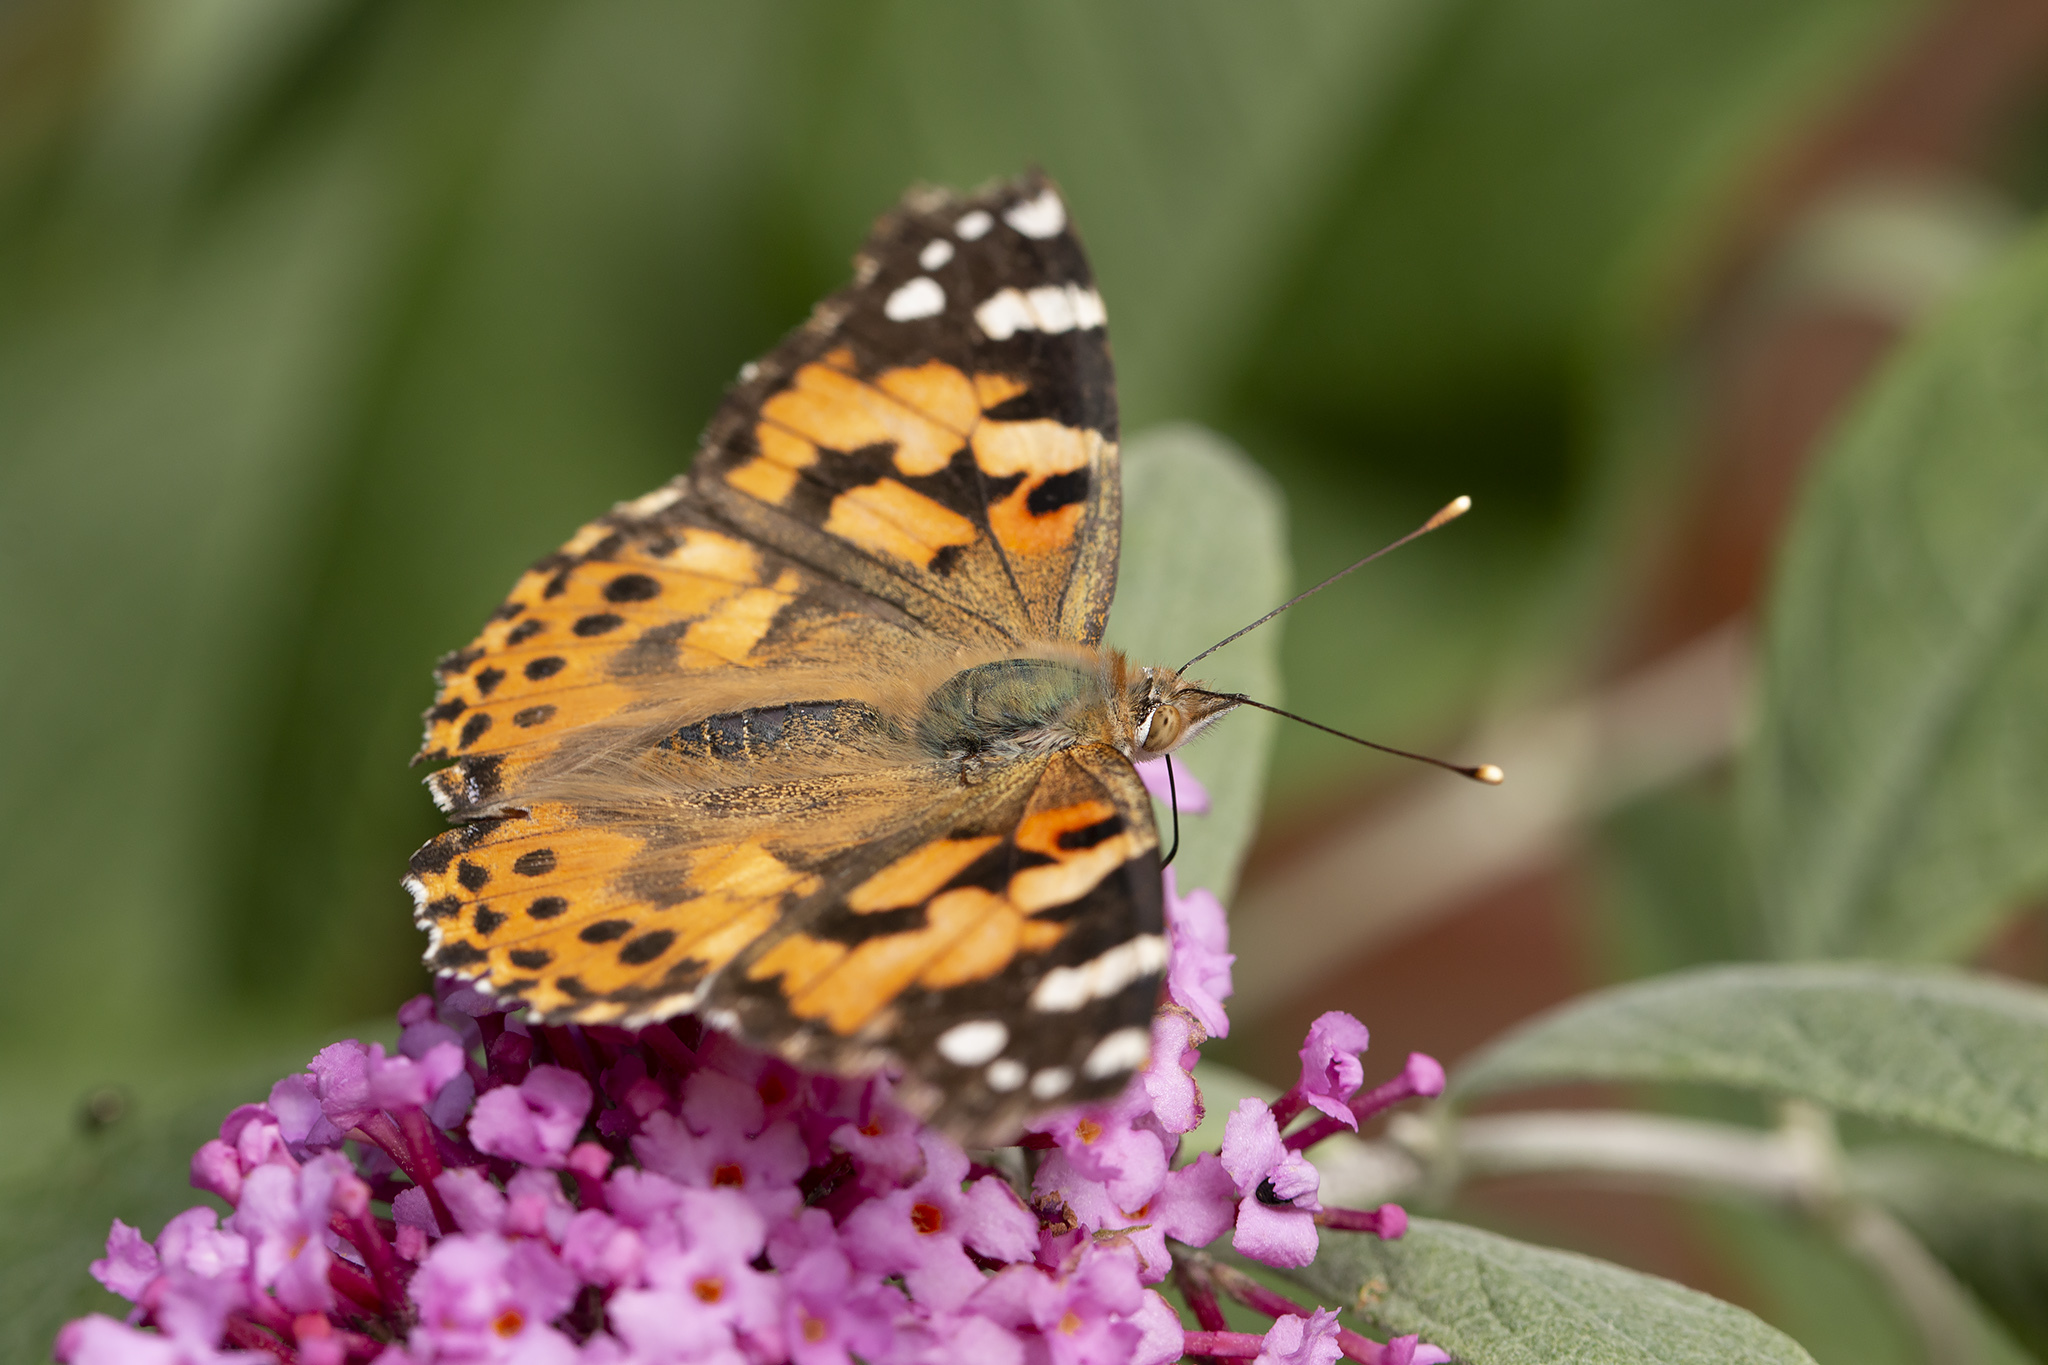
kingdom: Animalia
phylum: Arthropoda
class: Insecta
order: Lepidoptera
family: Nymphalidae
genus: Vanessa
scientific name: Vanessa cardui
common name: Painted lady
